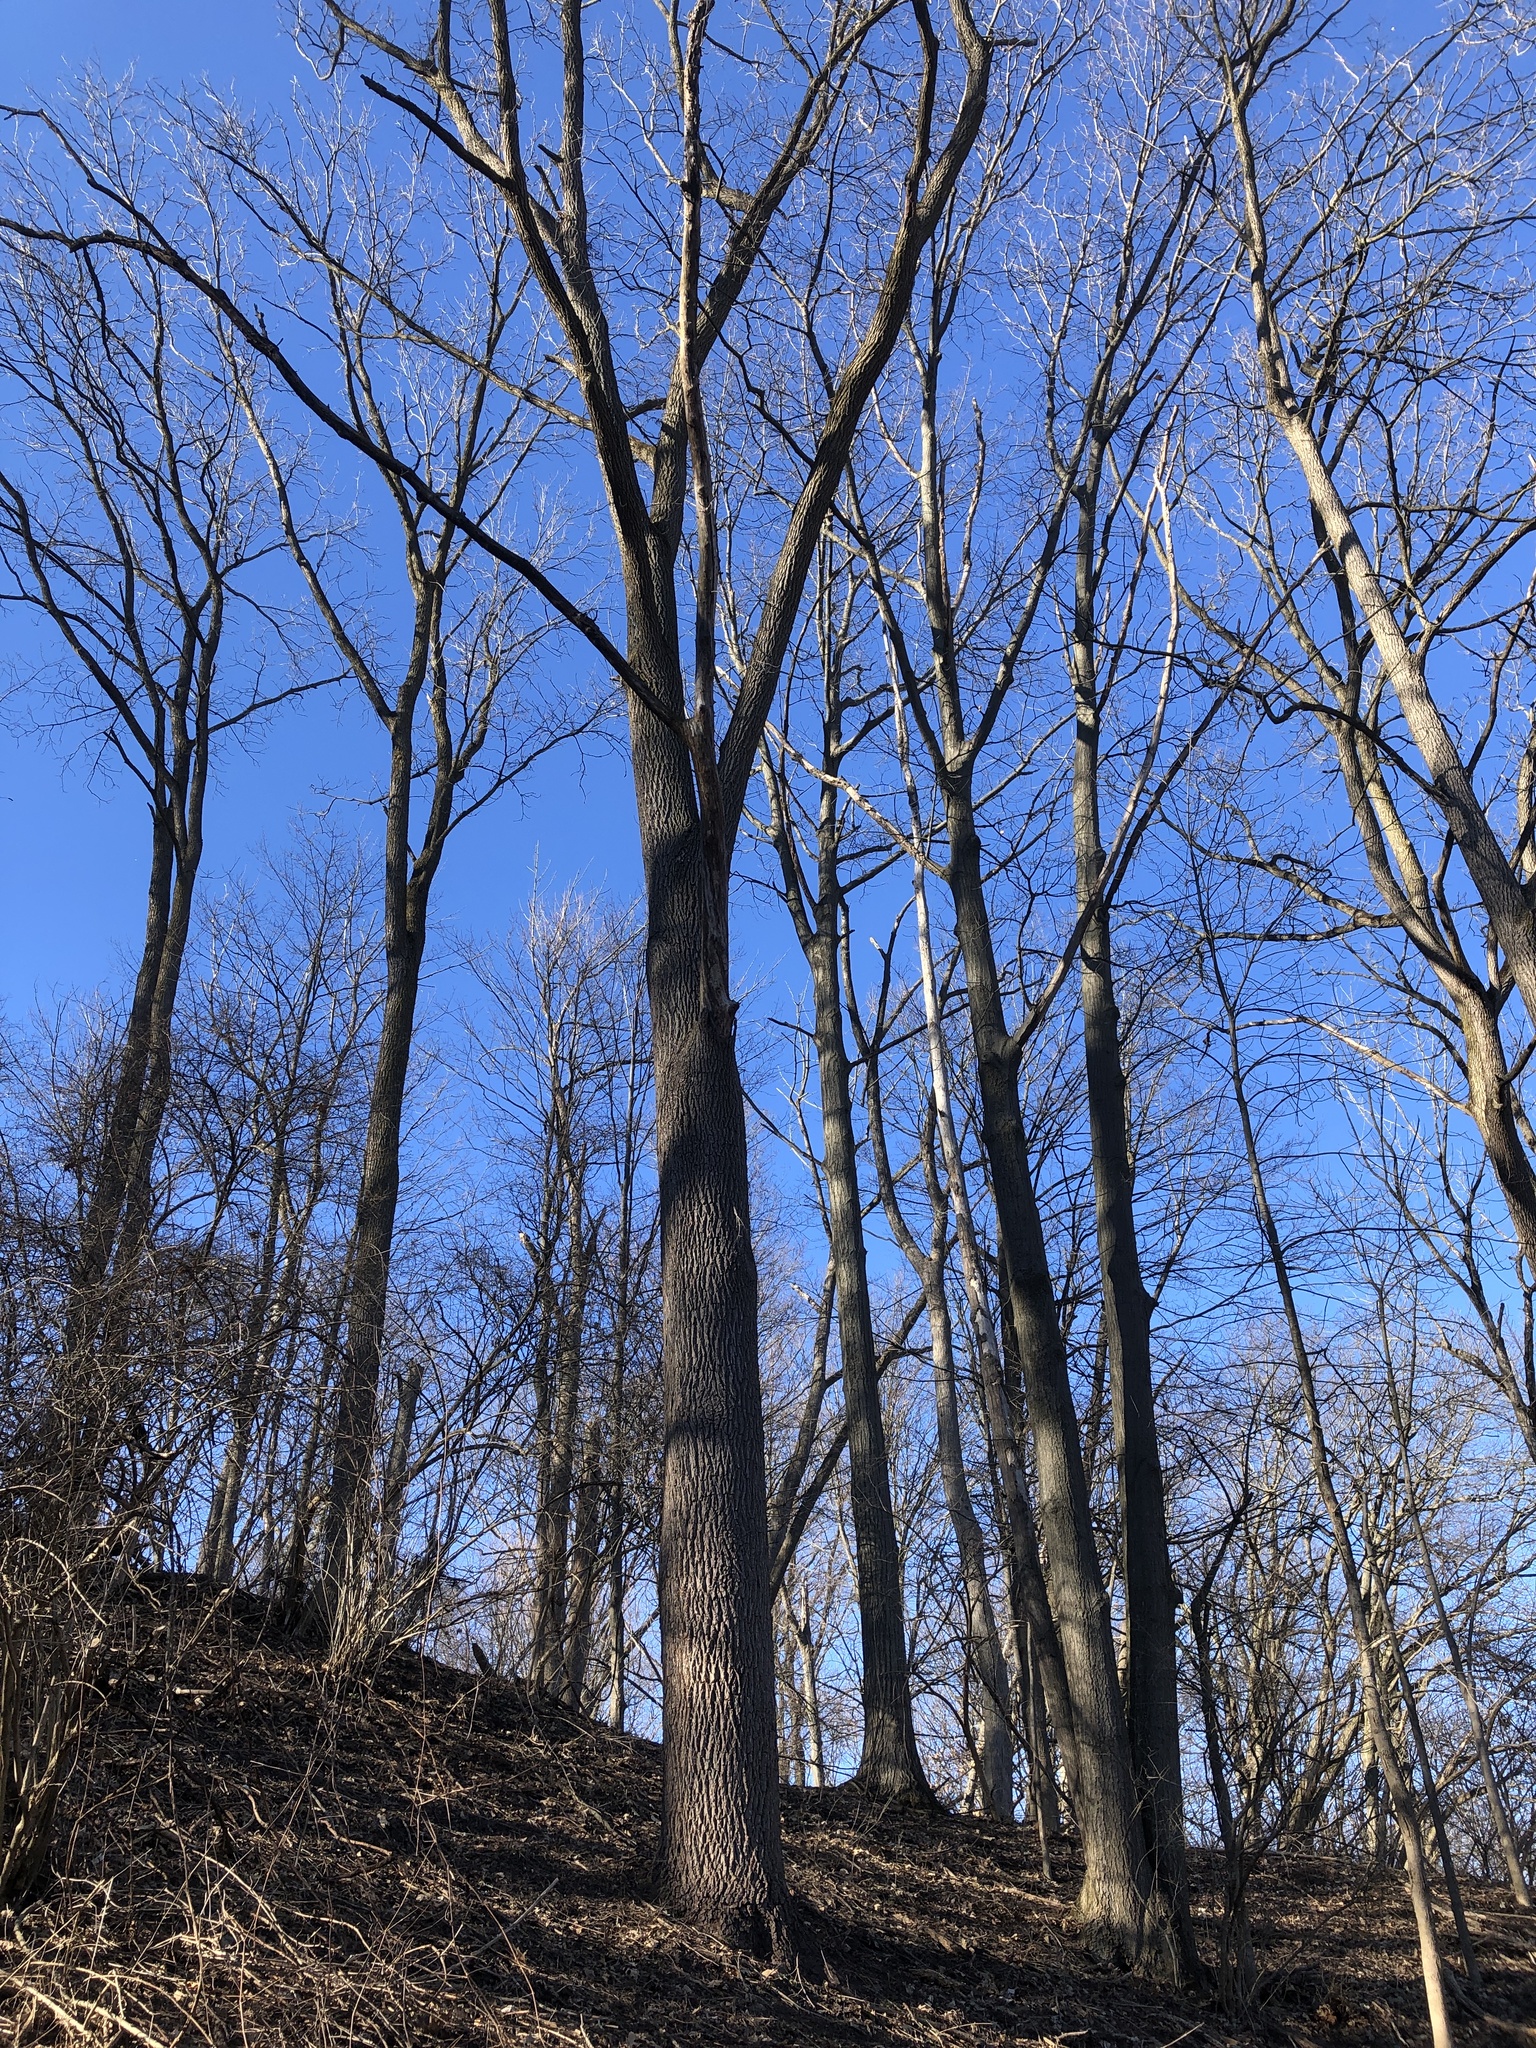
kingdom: Plantae
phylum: Tracheophyta
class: Magnoliopsida
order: Fagales
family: Juglandaceae
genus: Juglans
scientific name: Juglans nigra
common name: Black walnut
